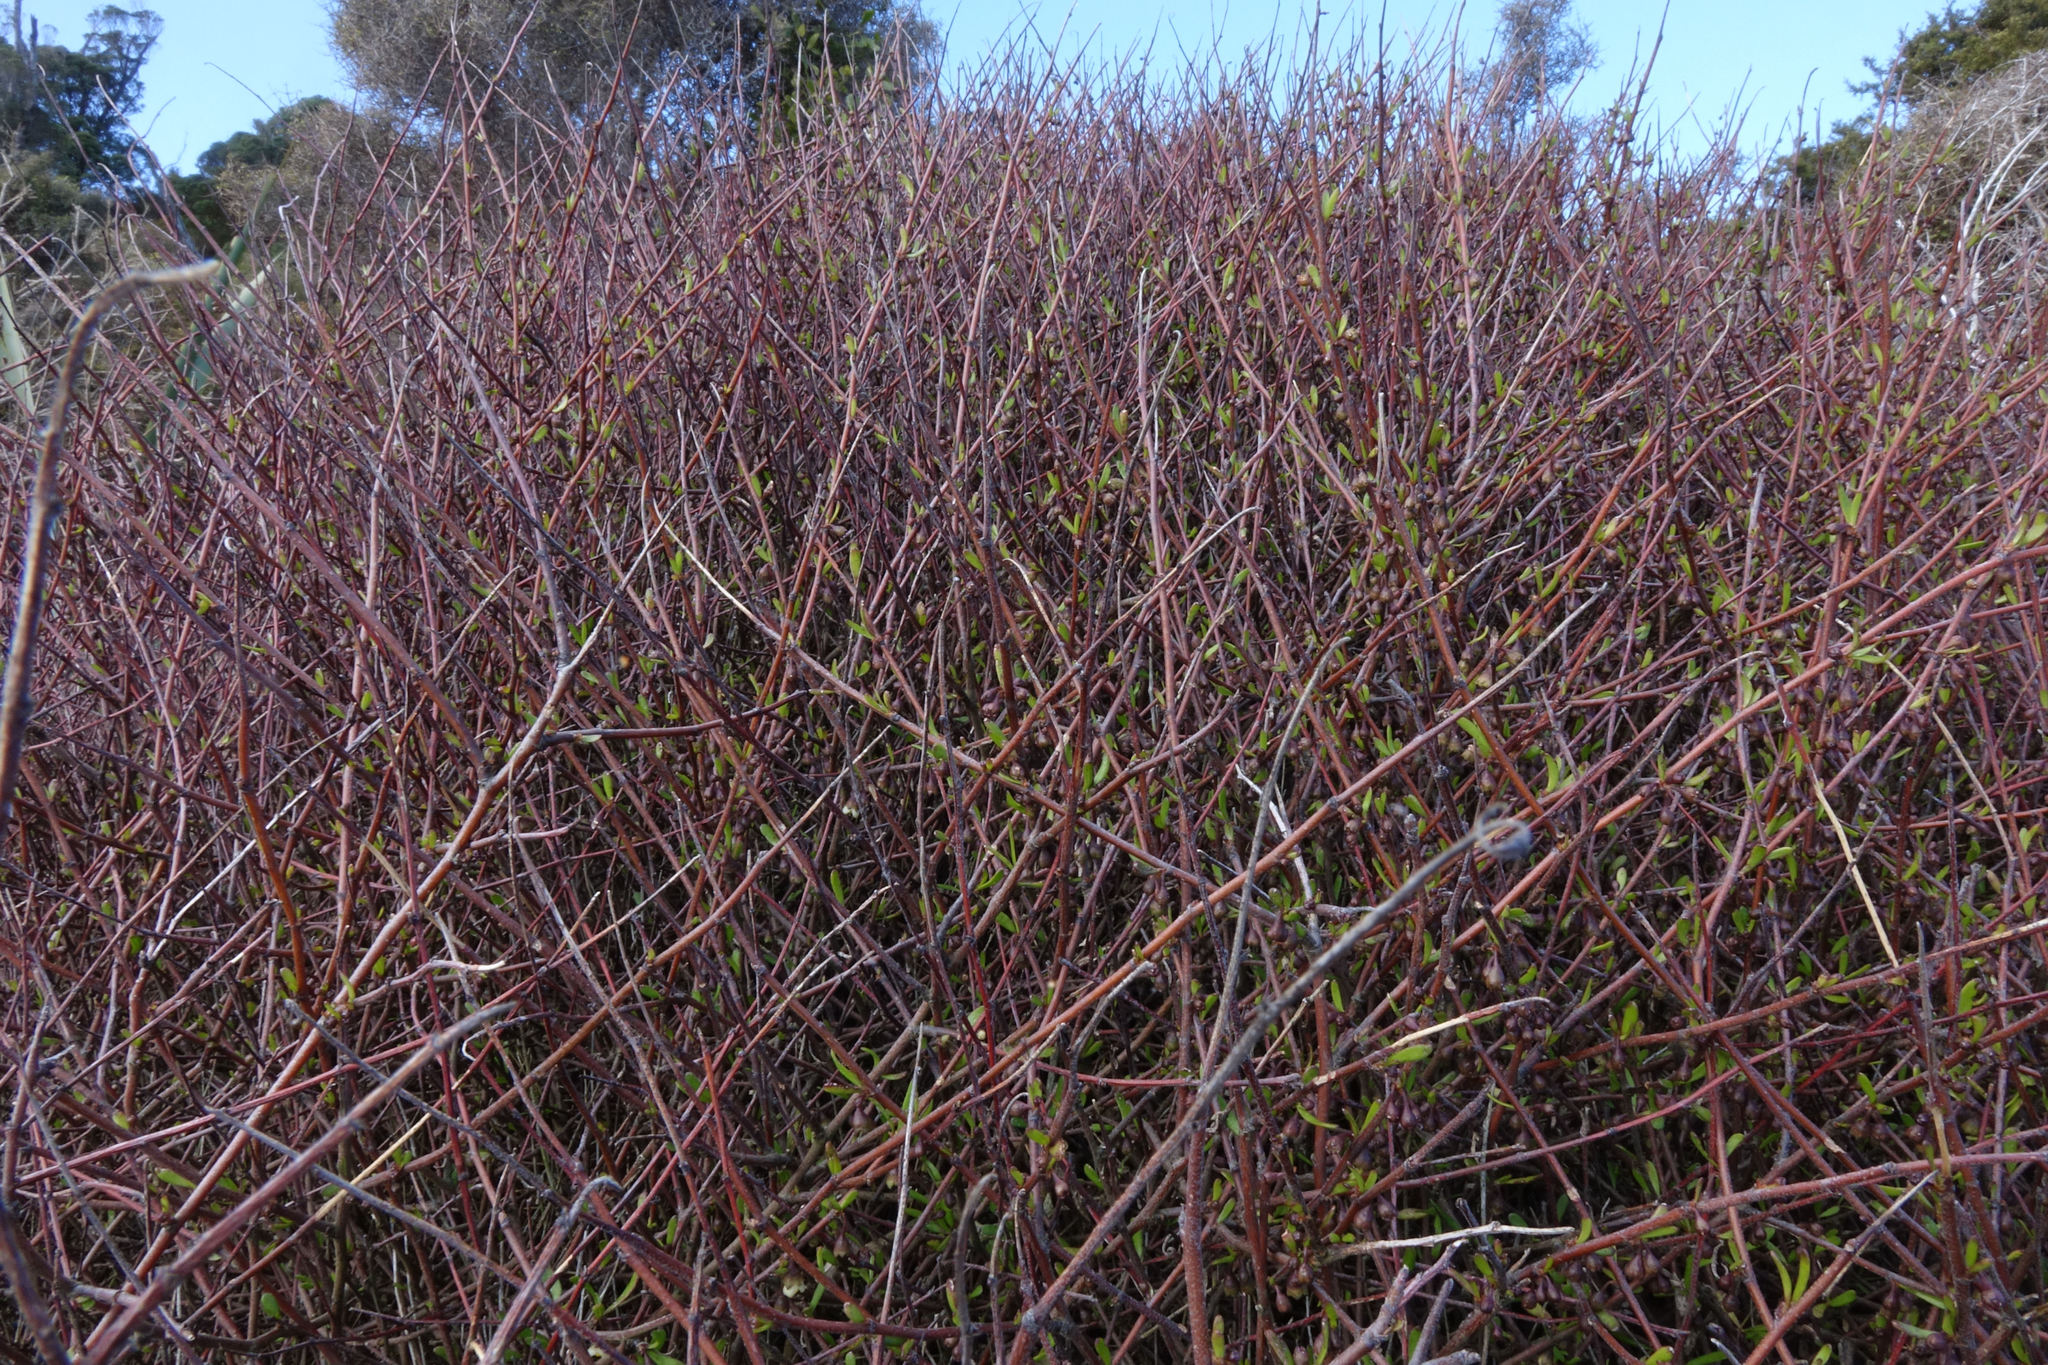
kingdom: Plantae
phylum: Tracheophyta
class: Magnoliopsida
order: Malvales
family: Malvaceae
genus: Plagianthus
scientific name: Plagianthus divaricatus
